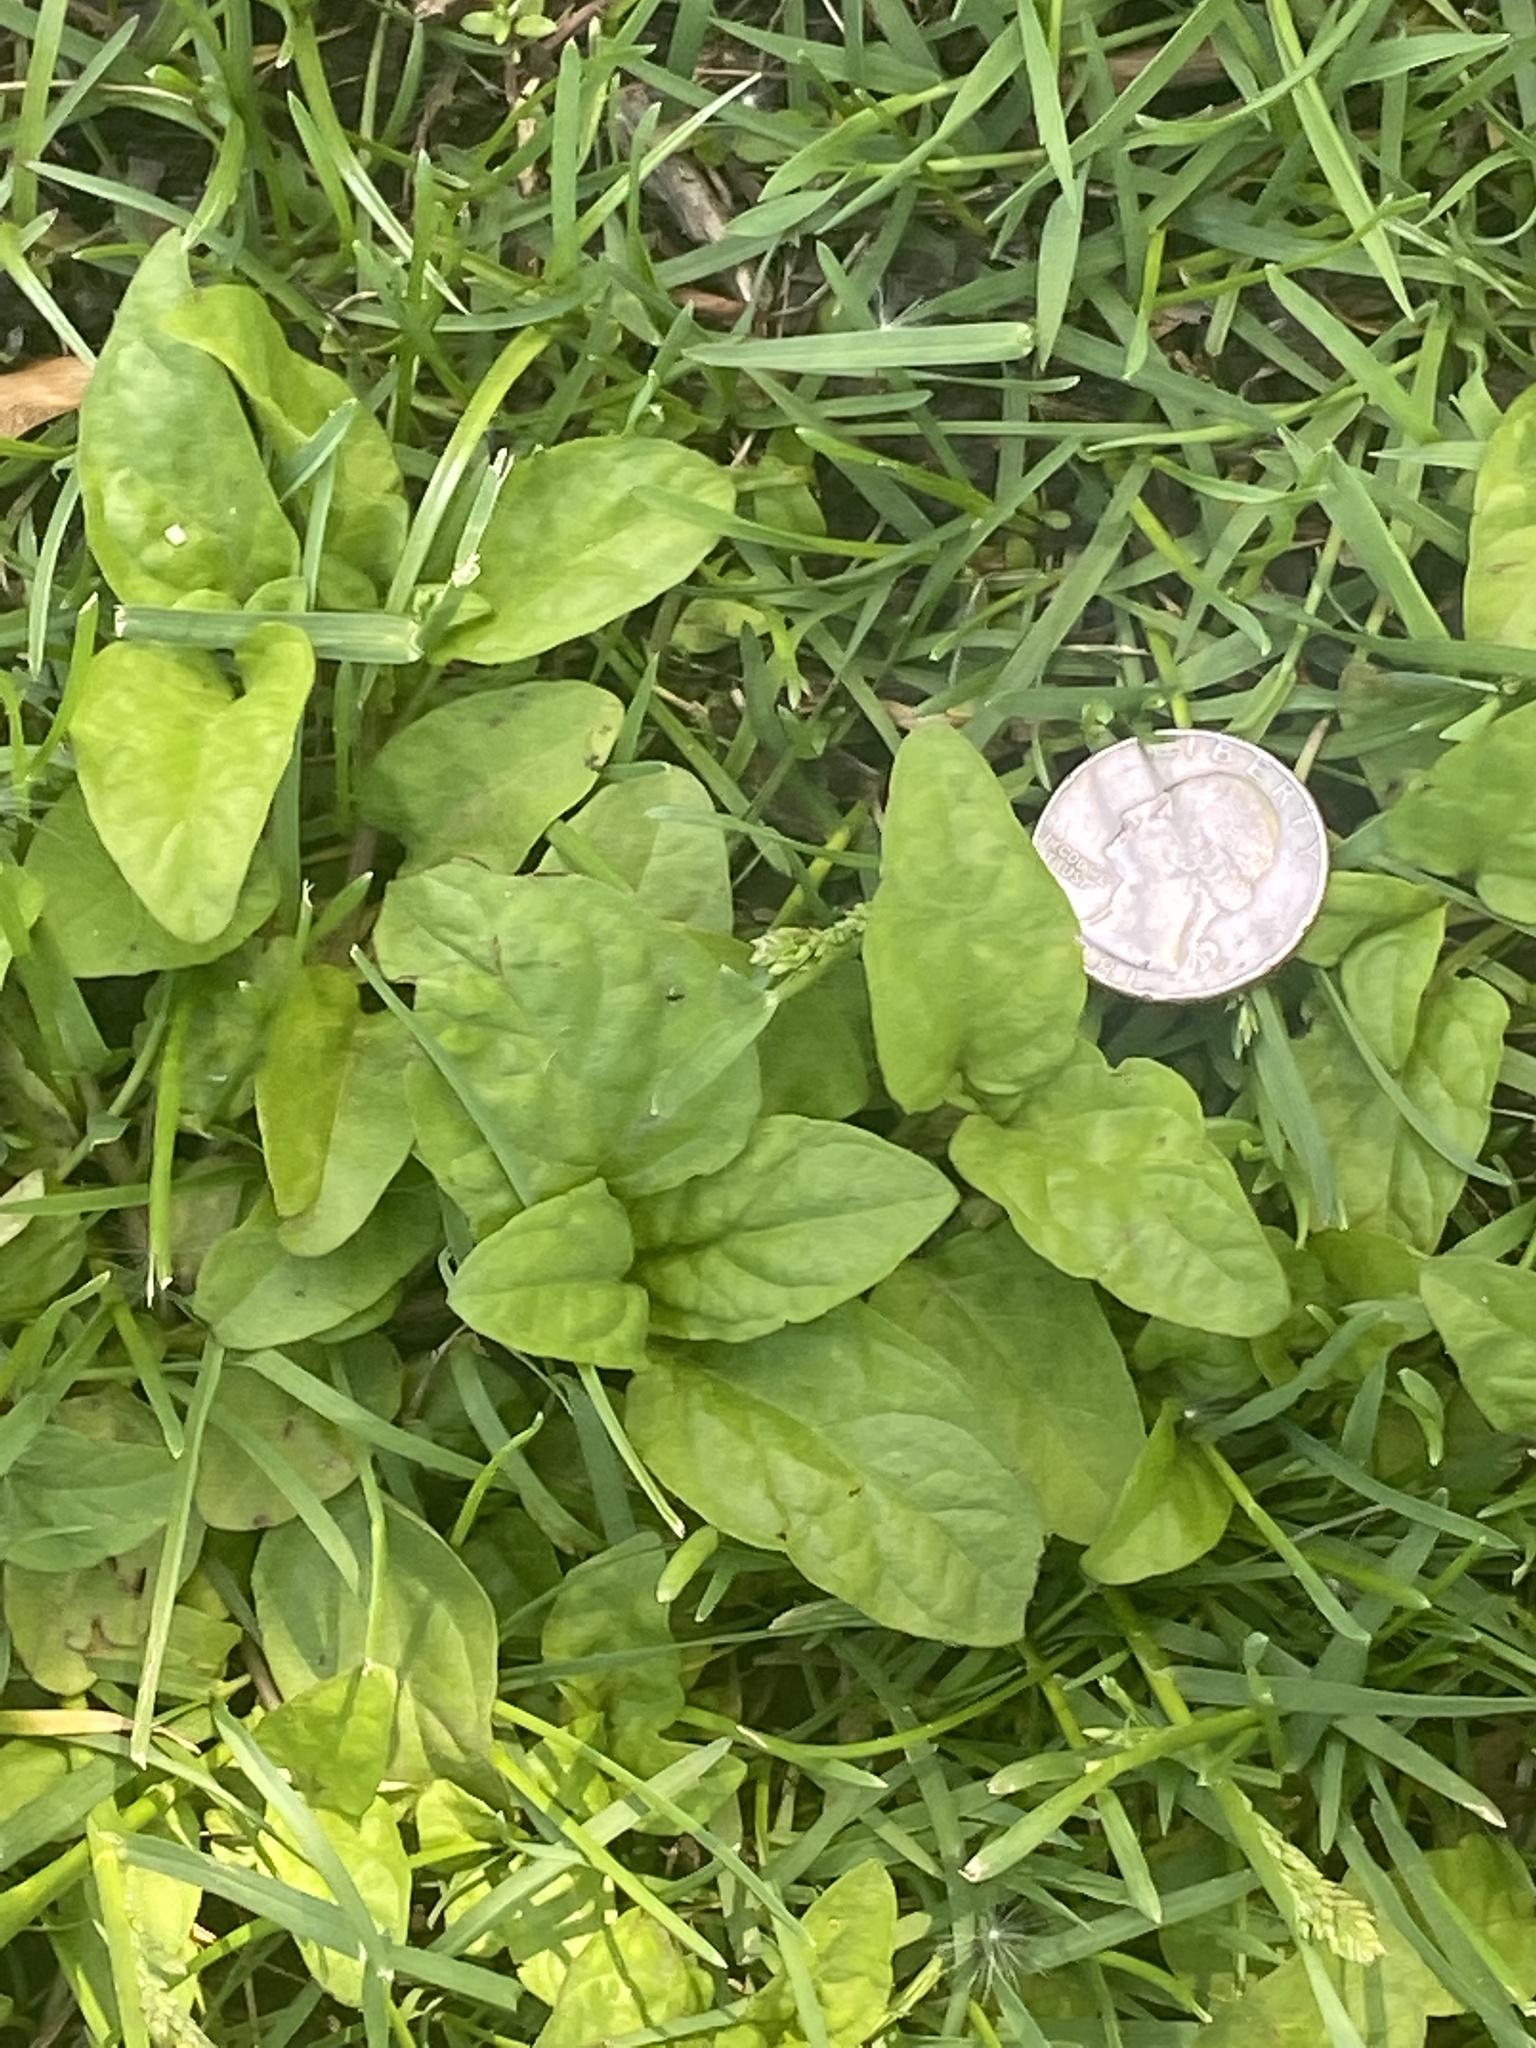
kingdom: Plantae
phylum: Tracheophyta
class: Magnoliopsida
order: Lamiales
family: Lamiaceae
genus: Prunella
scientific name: Prunella vulgaris
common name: Heal-all
